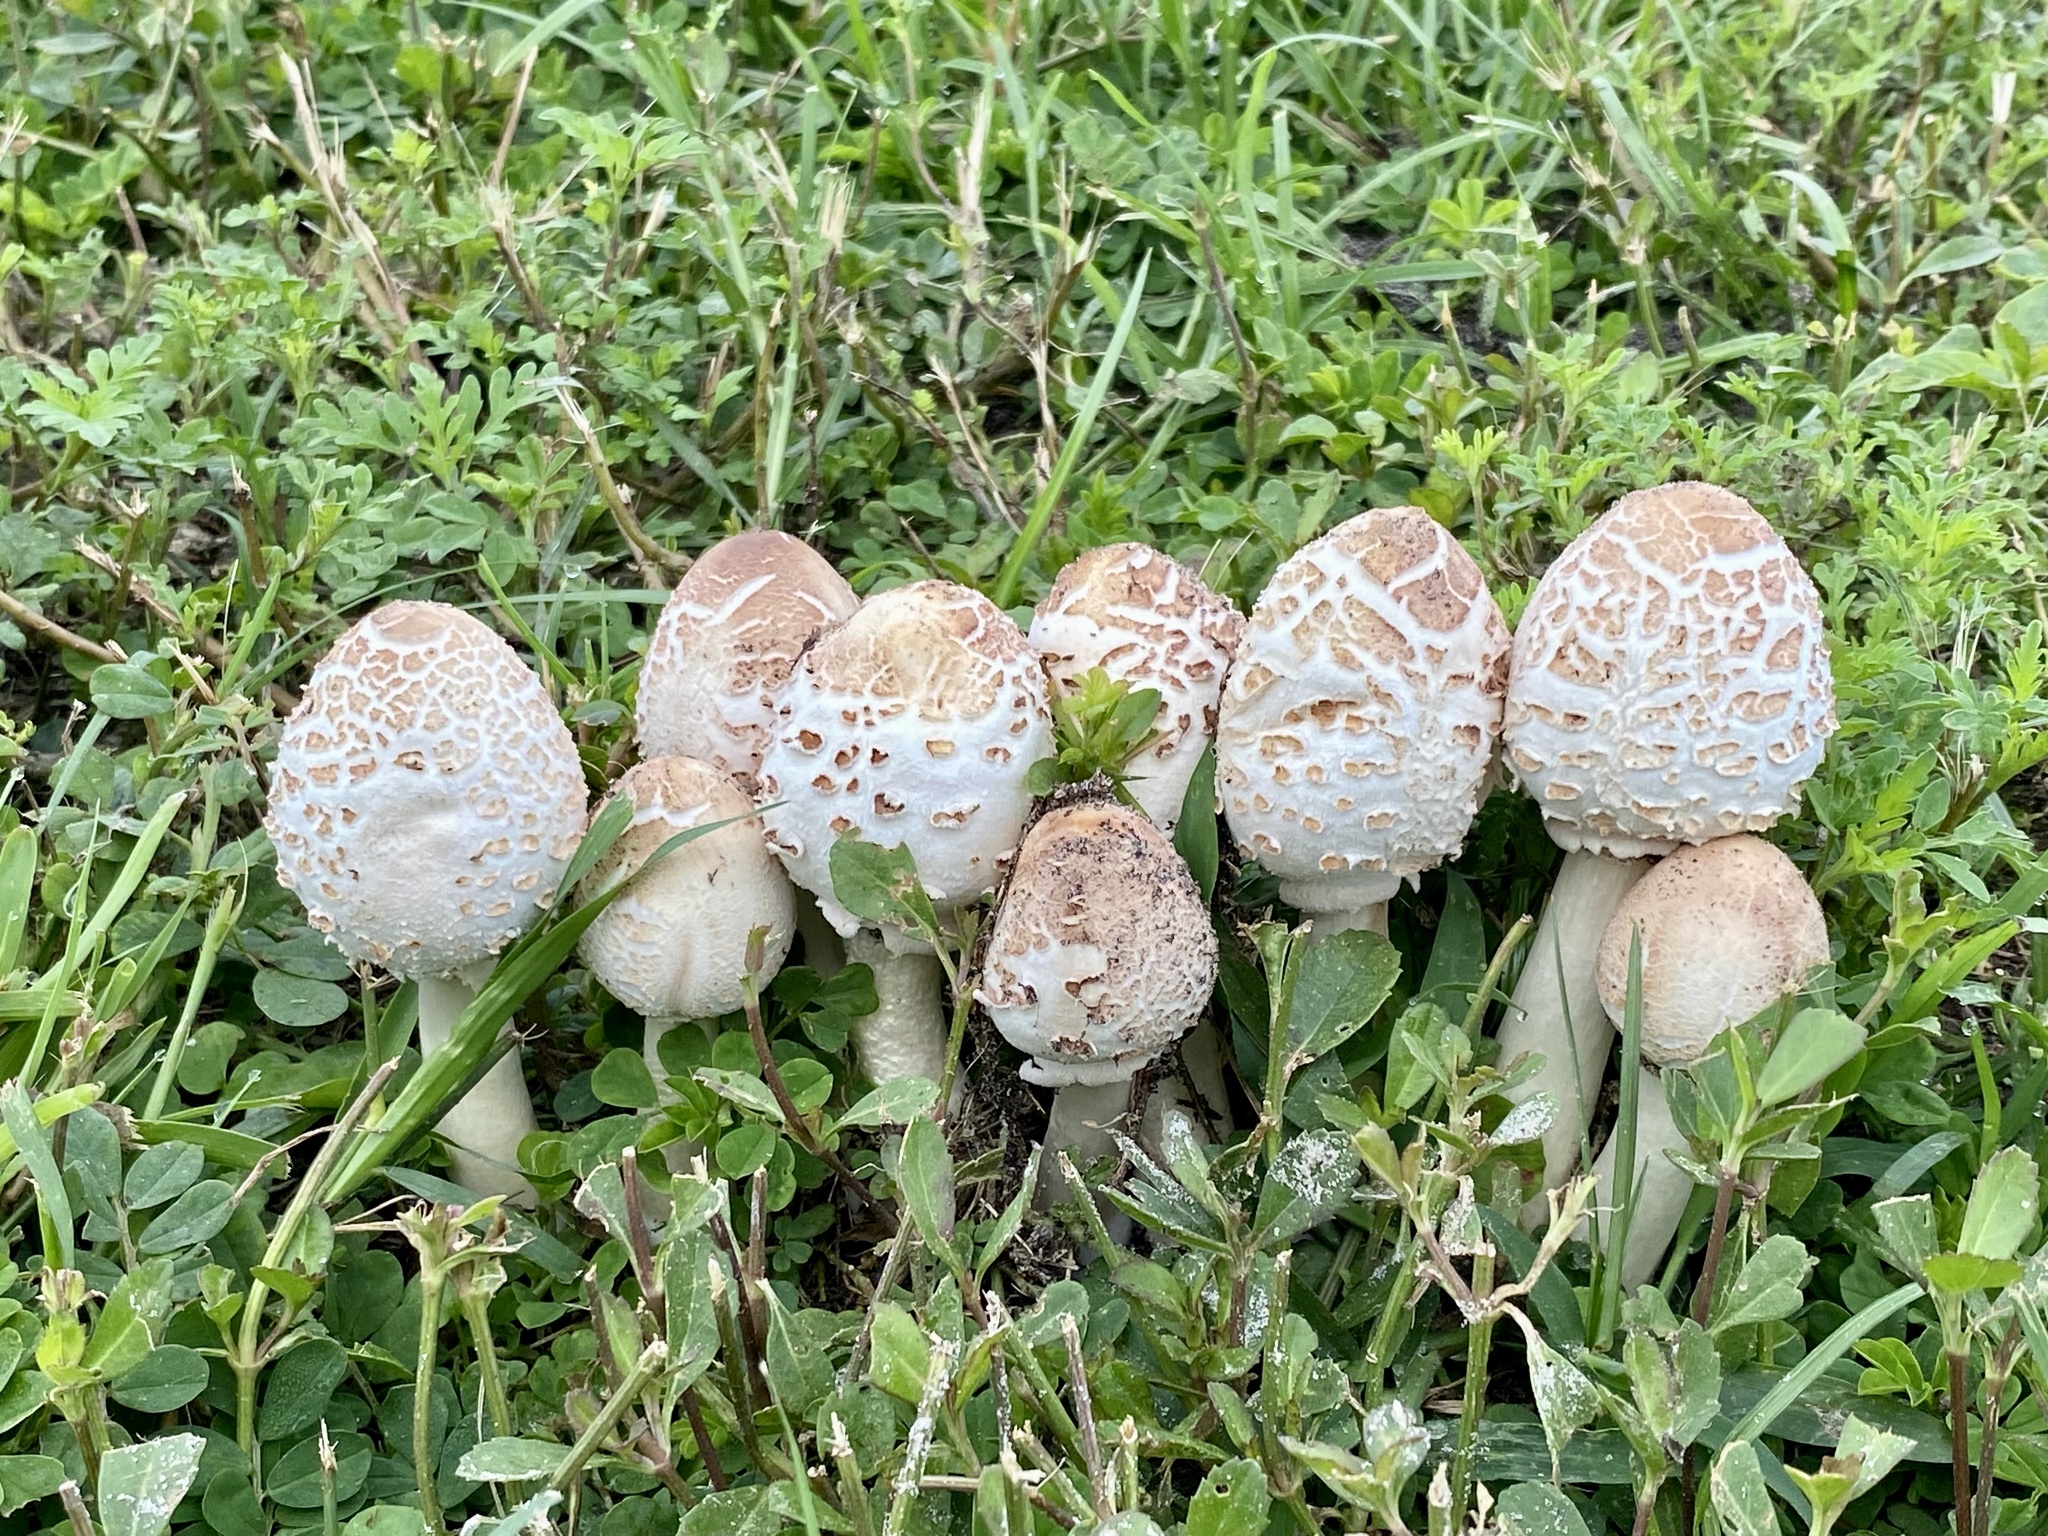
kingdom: Fungi
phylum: Basidiomycota
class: Agaricomycetes
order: Agaricales
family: Agaricaceae
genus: Chlorophyllum
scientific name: Chlorophyllum molybdites
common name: False parasol
